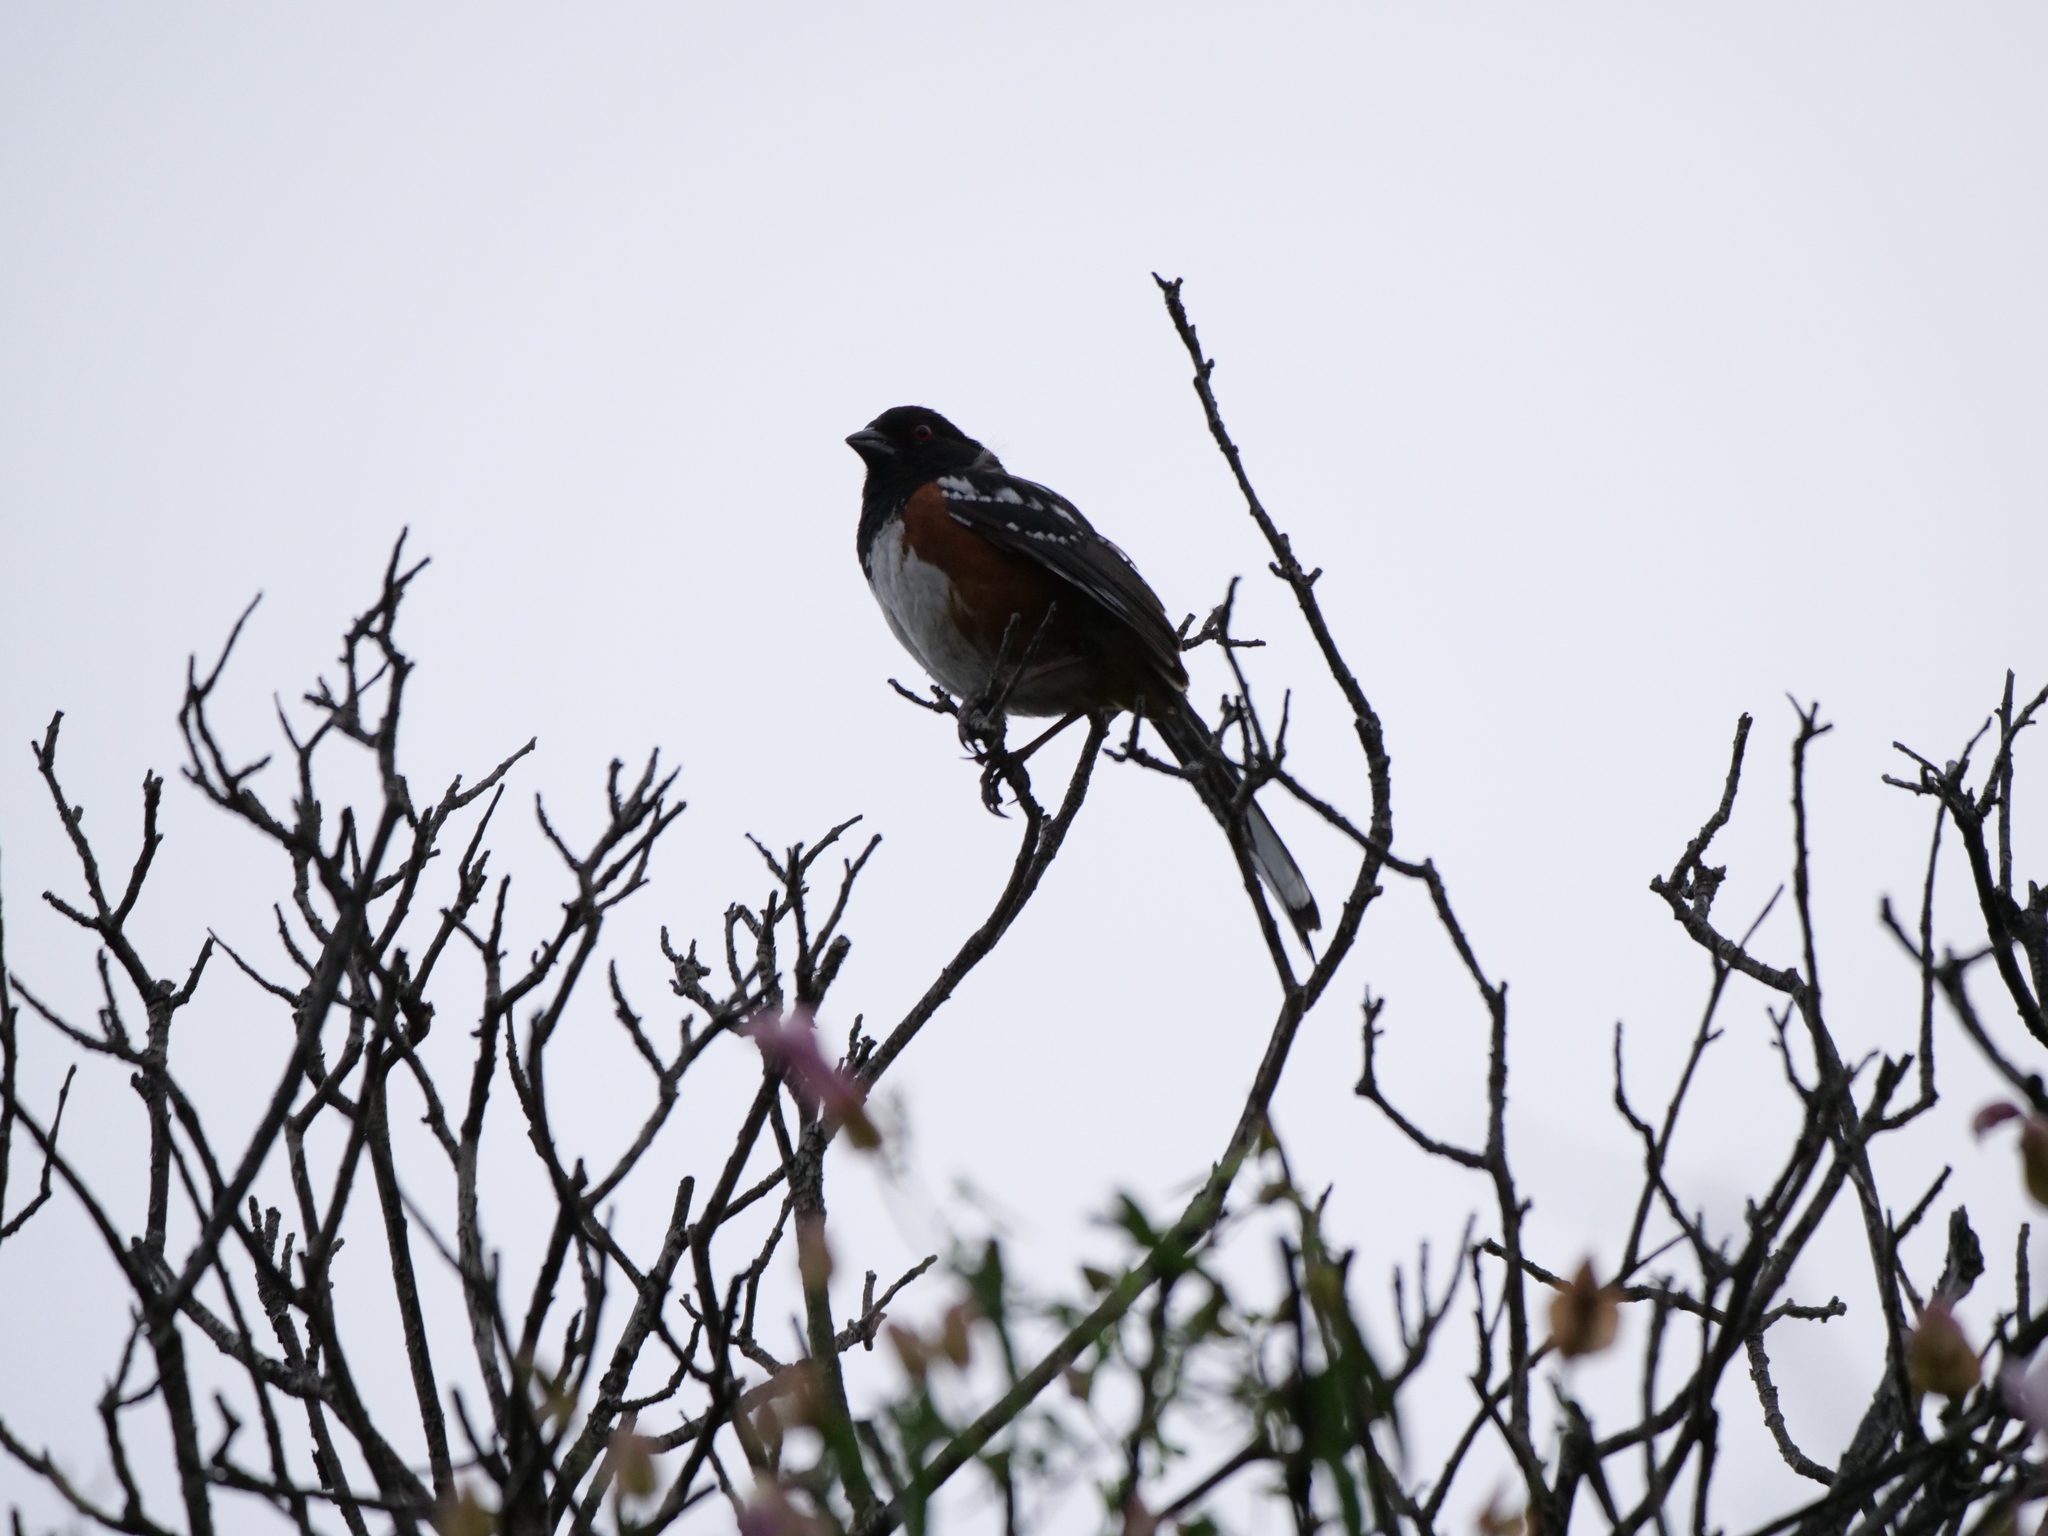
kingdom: Animalia
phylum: Chordata
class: Aves
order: Passeriformes
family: Passerellidae
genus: Pipilo
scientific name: Pipilo maculatus
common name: Spotted towhee
